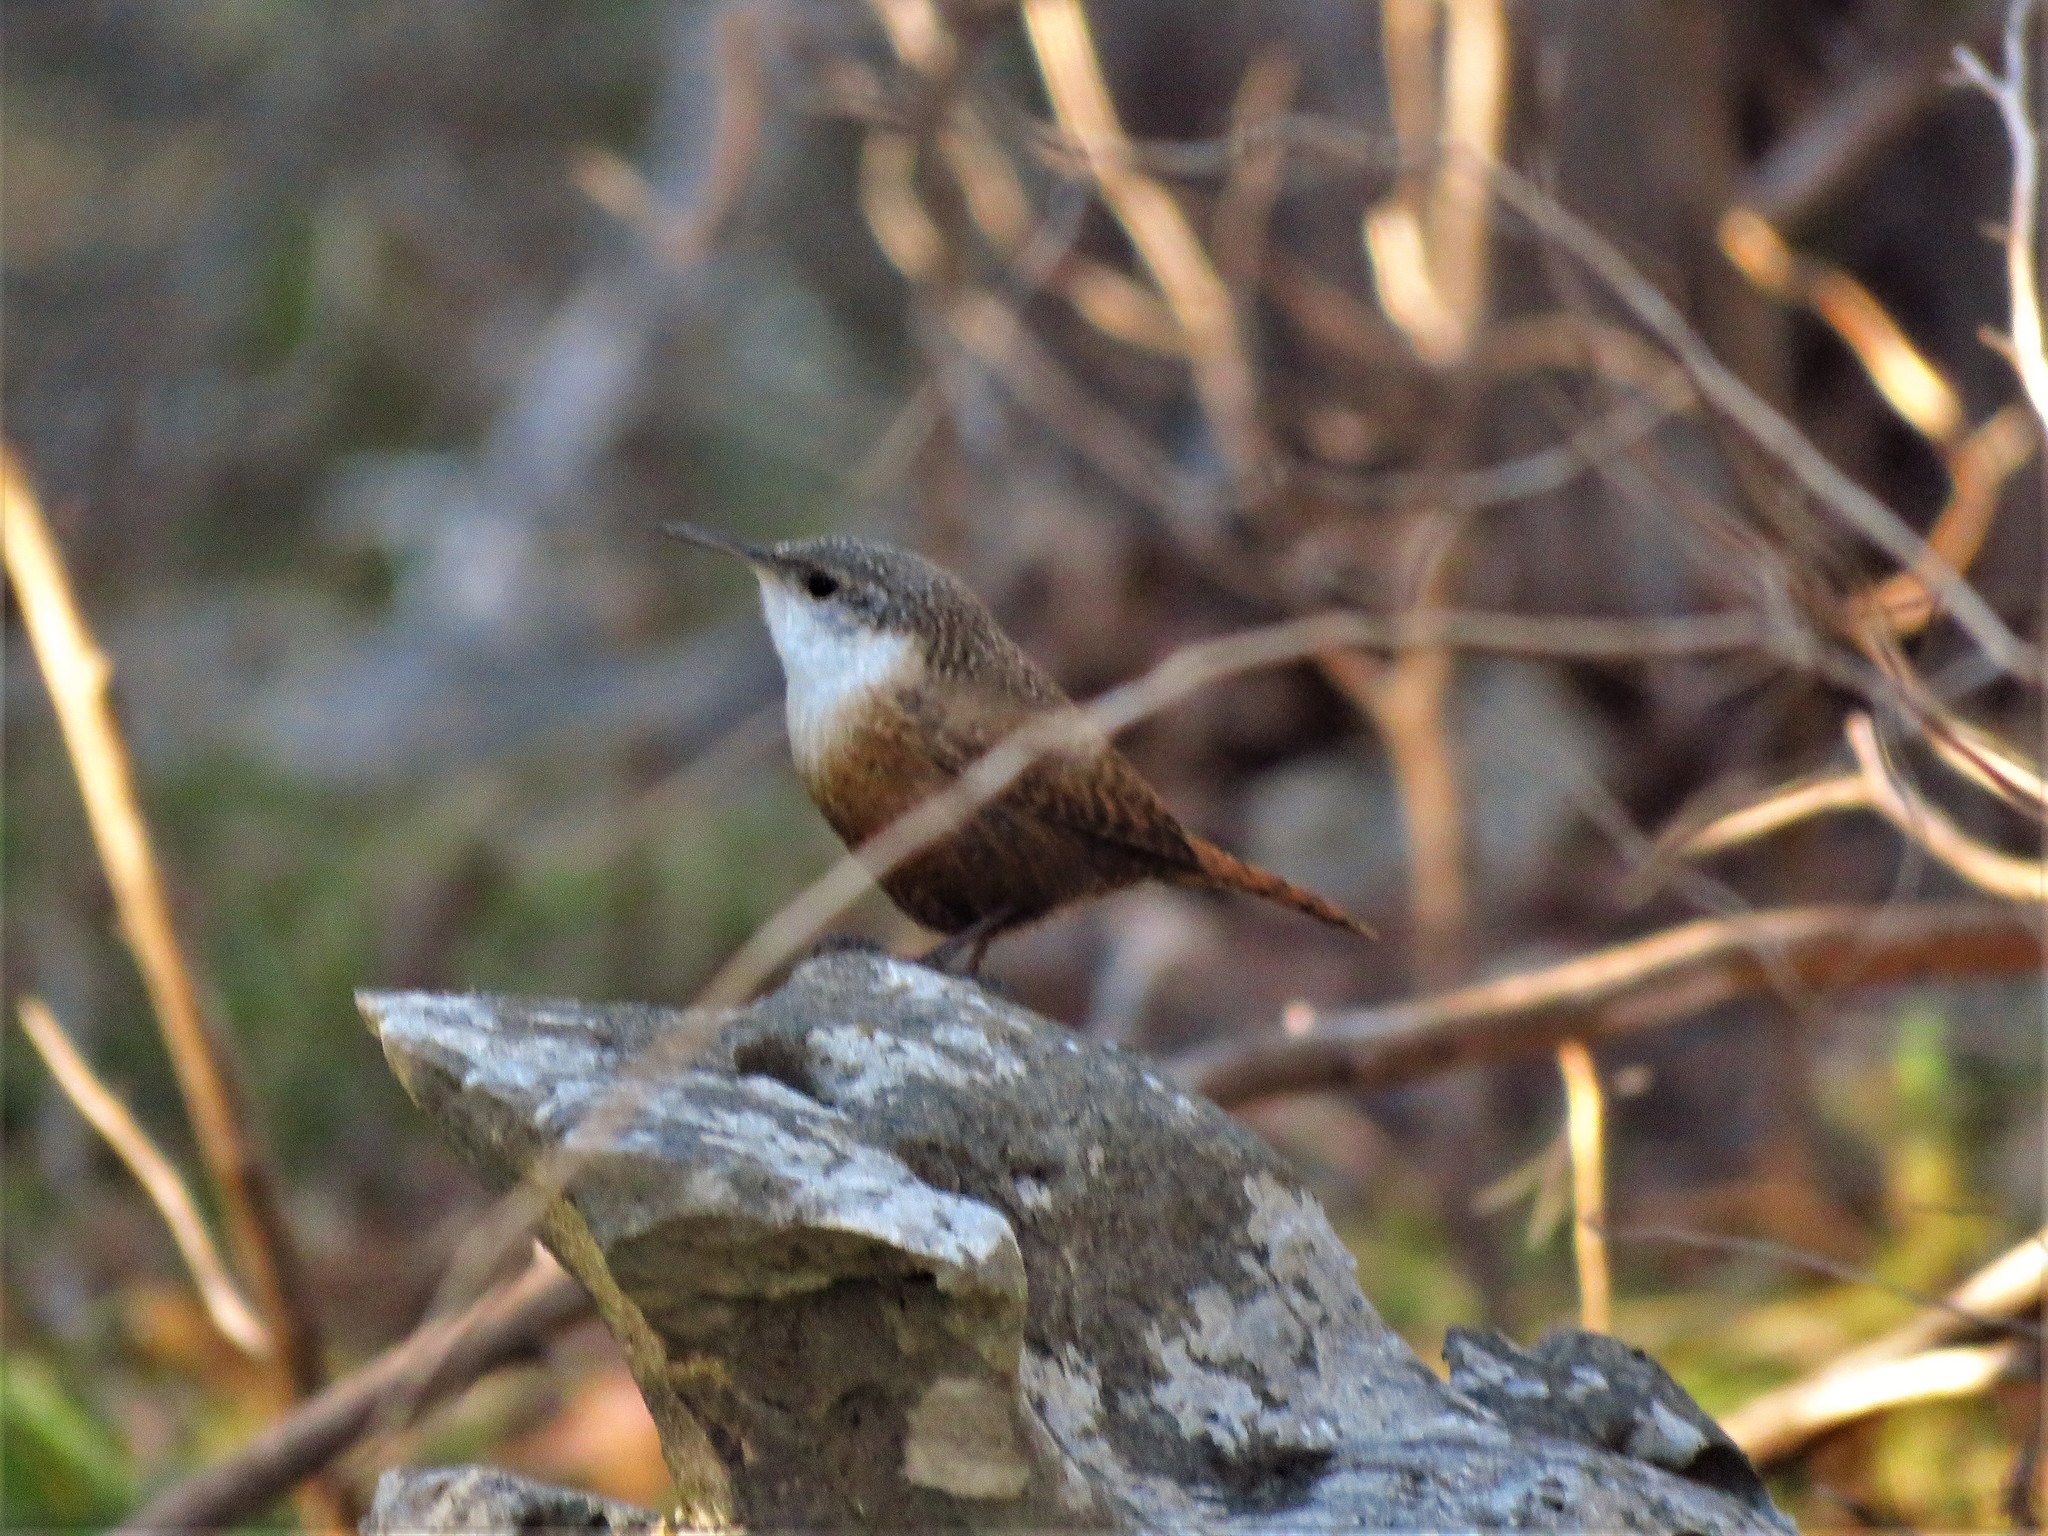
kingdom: Animalia
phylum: Chordata
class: Aves
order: Passeriformes
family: Troglodytidae
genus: Catherpes
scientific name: Catherpes mexicanus
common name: Canyon wren
